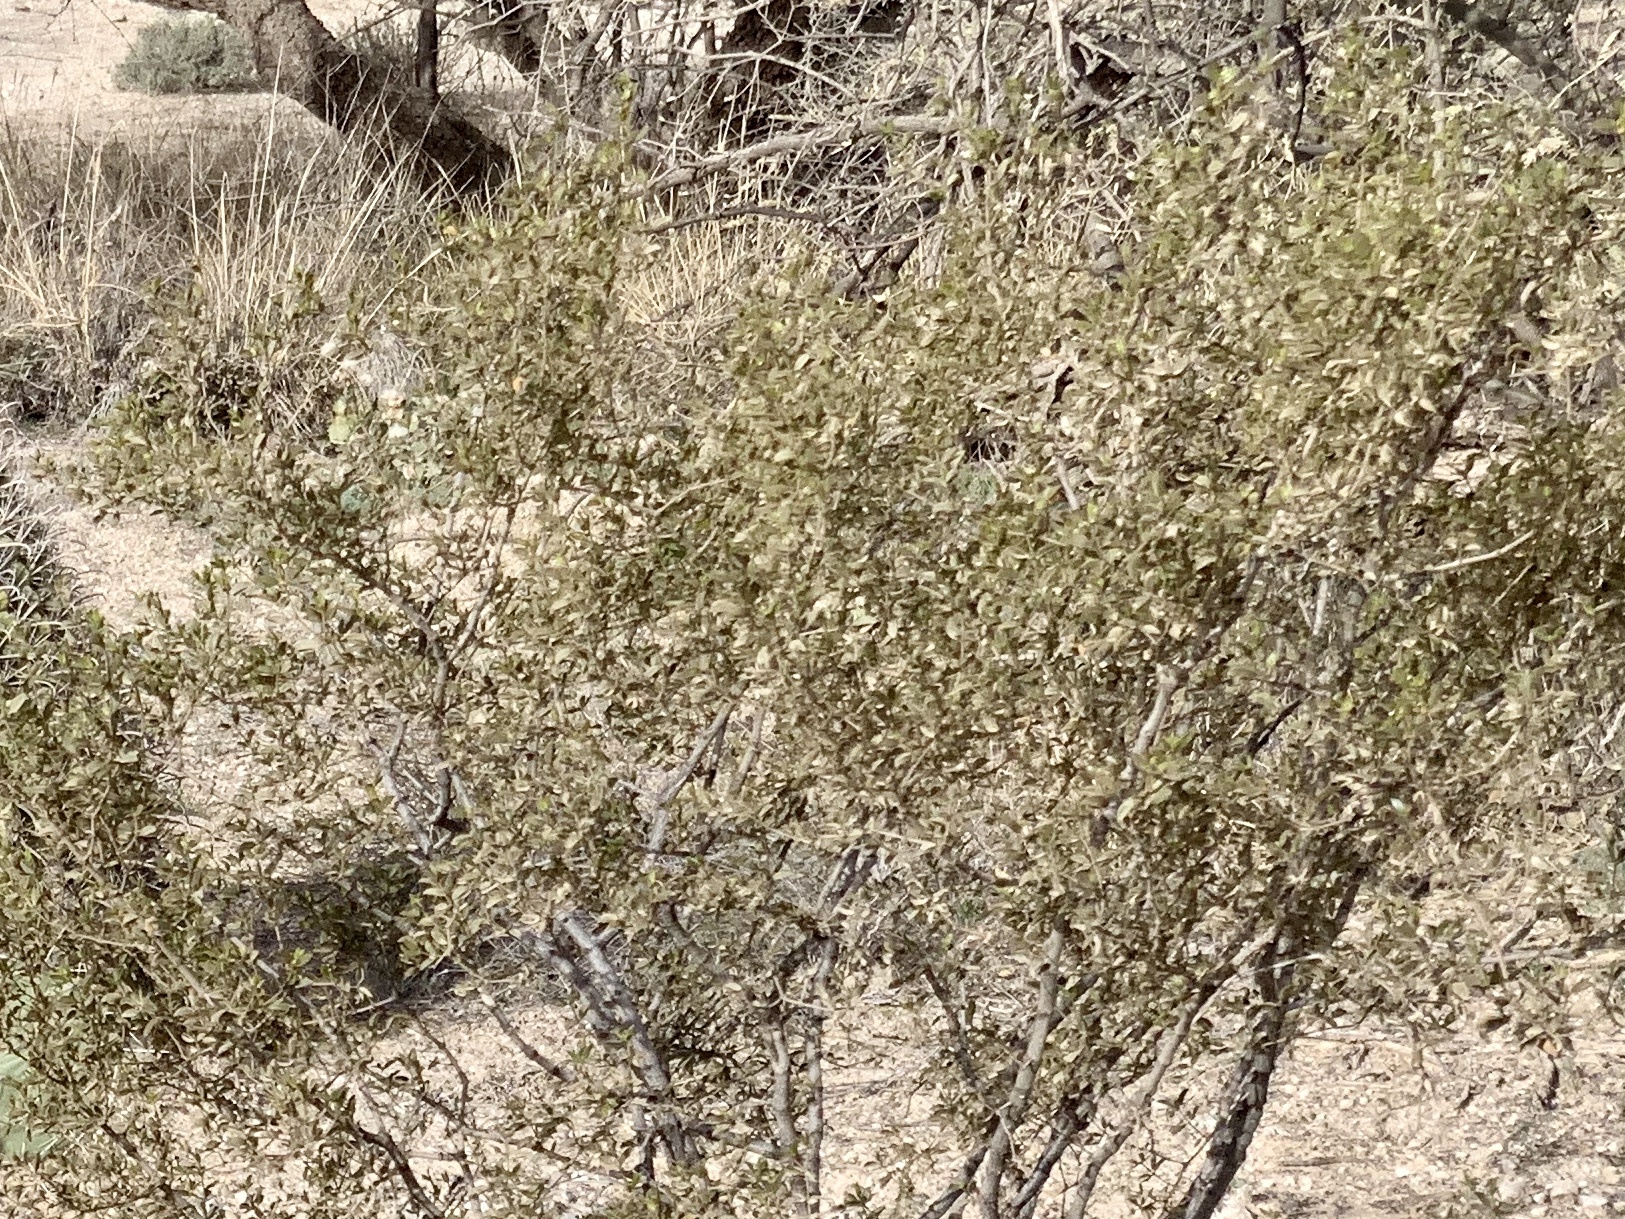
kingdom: Plantae
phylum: Tracheophyta
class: Magnoliopsida
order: Zygophyllales
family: Zygophyllaceae
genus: Larrea
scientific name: Larrea tridentata
